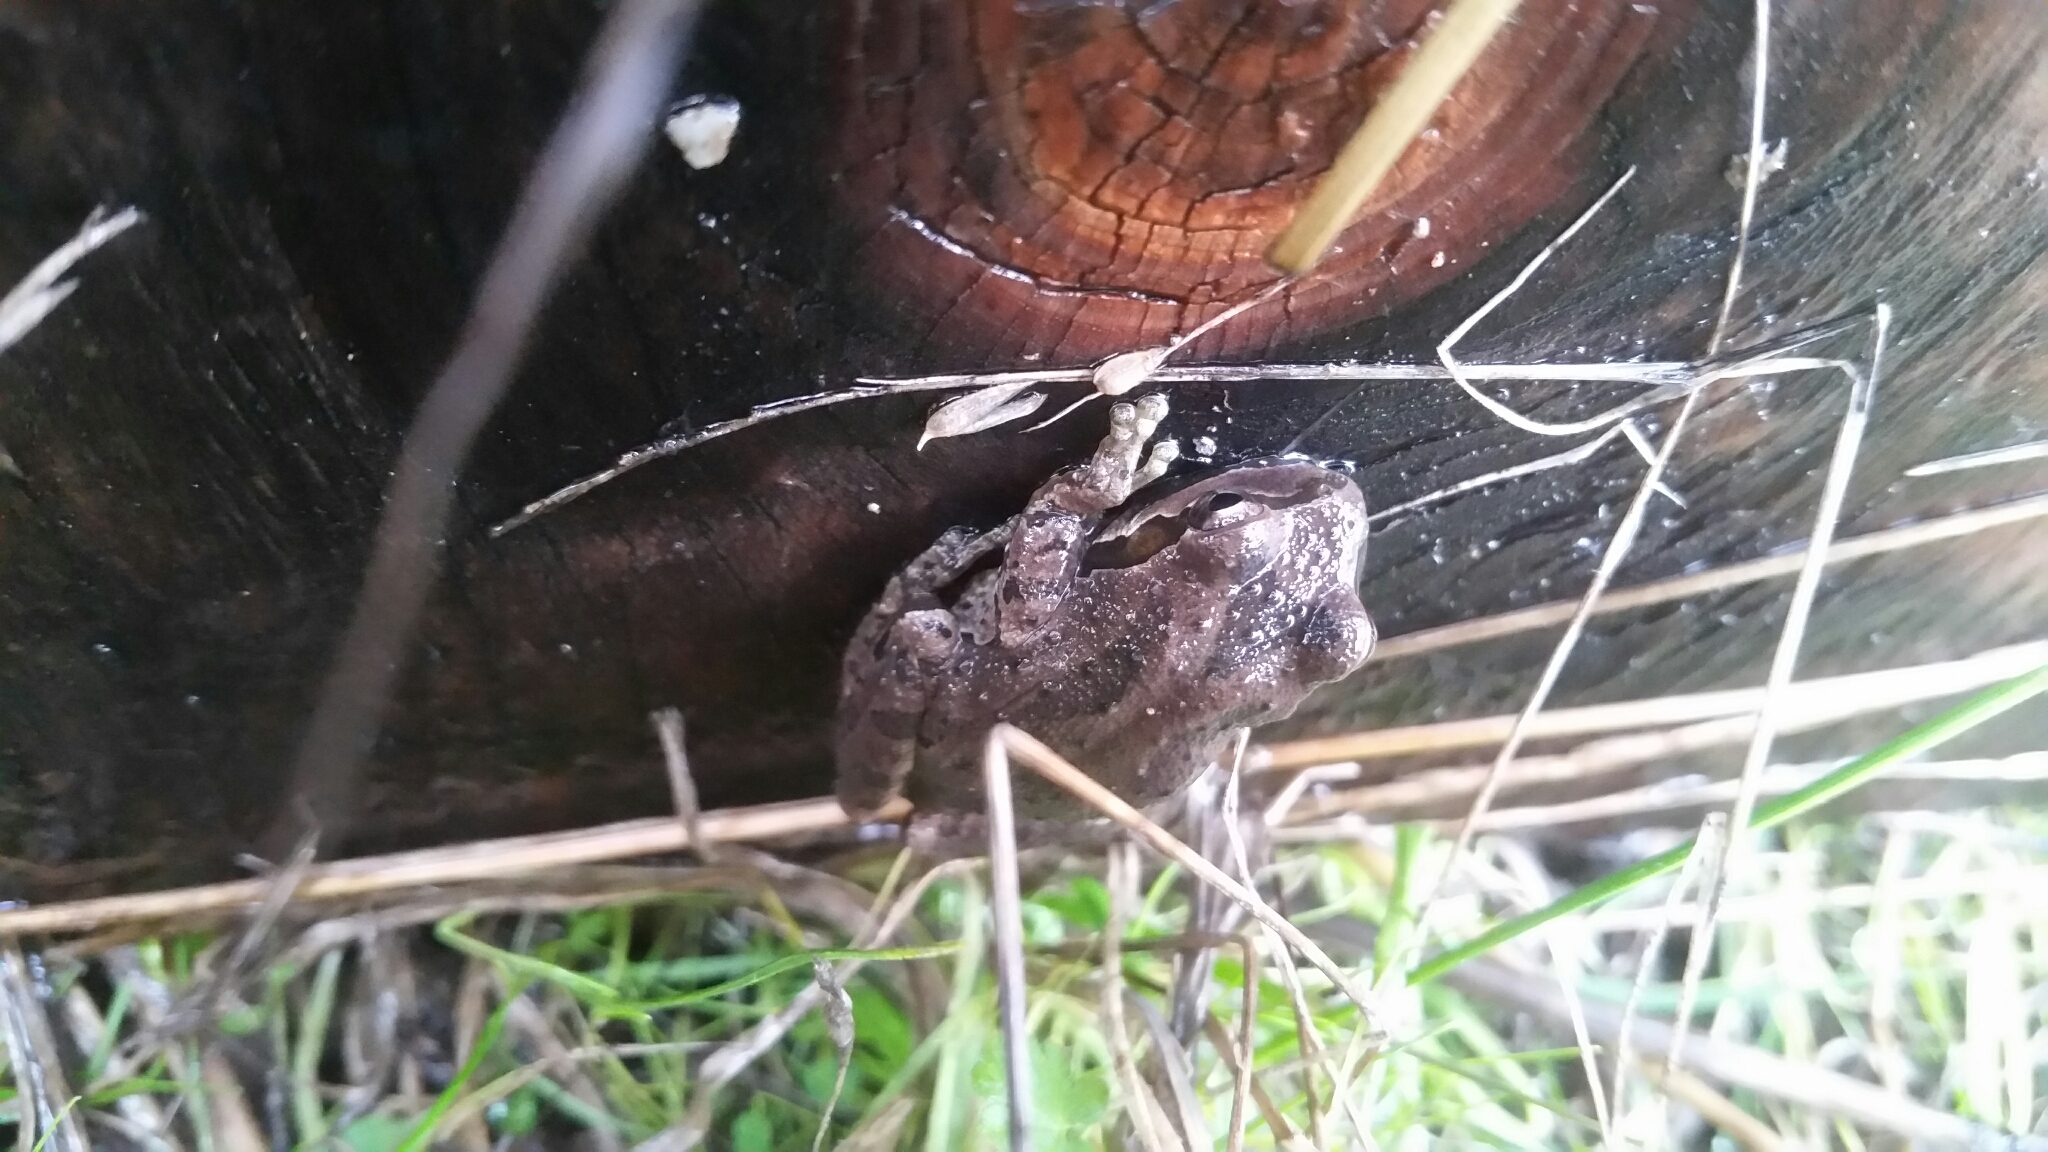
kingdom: Animalia
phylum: Chordata
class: Amphibia
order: Anura
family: Hylidae
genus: Pseudacris
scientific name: Pseudacris regilla
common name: Pacific chorus frog
